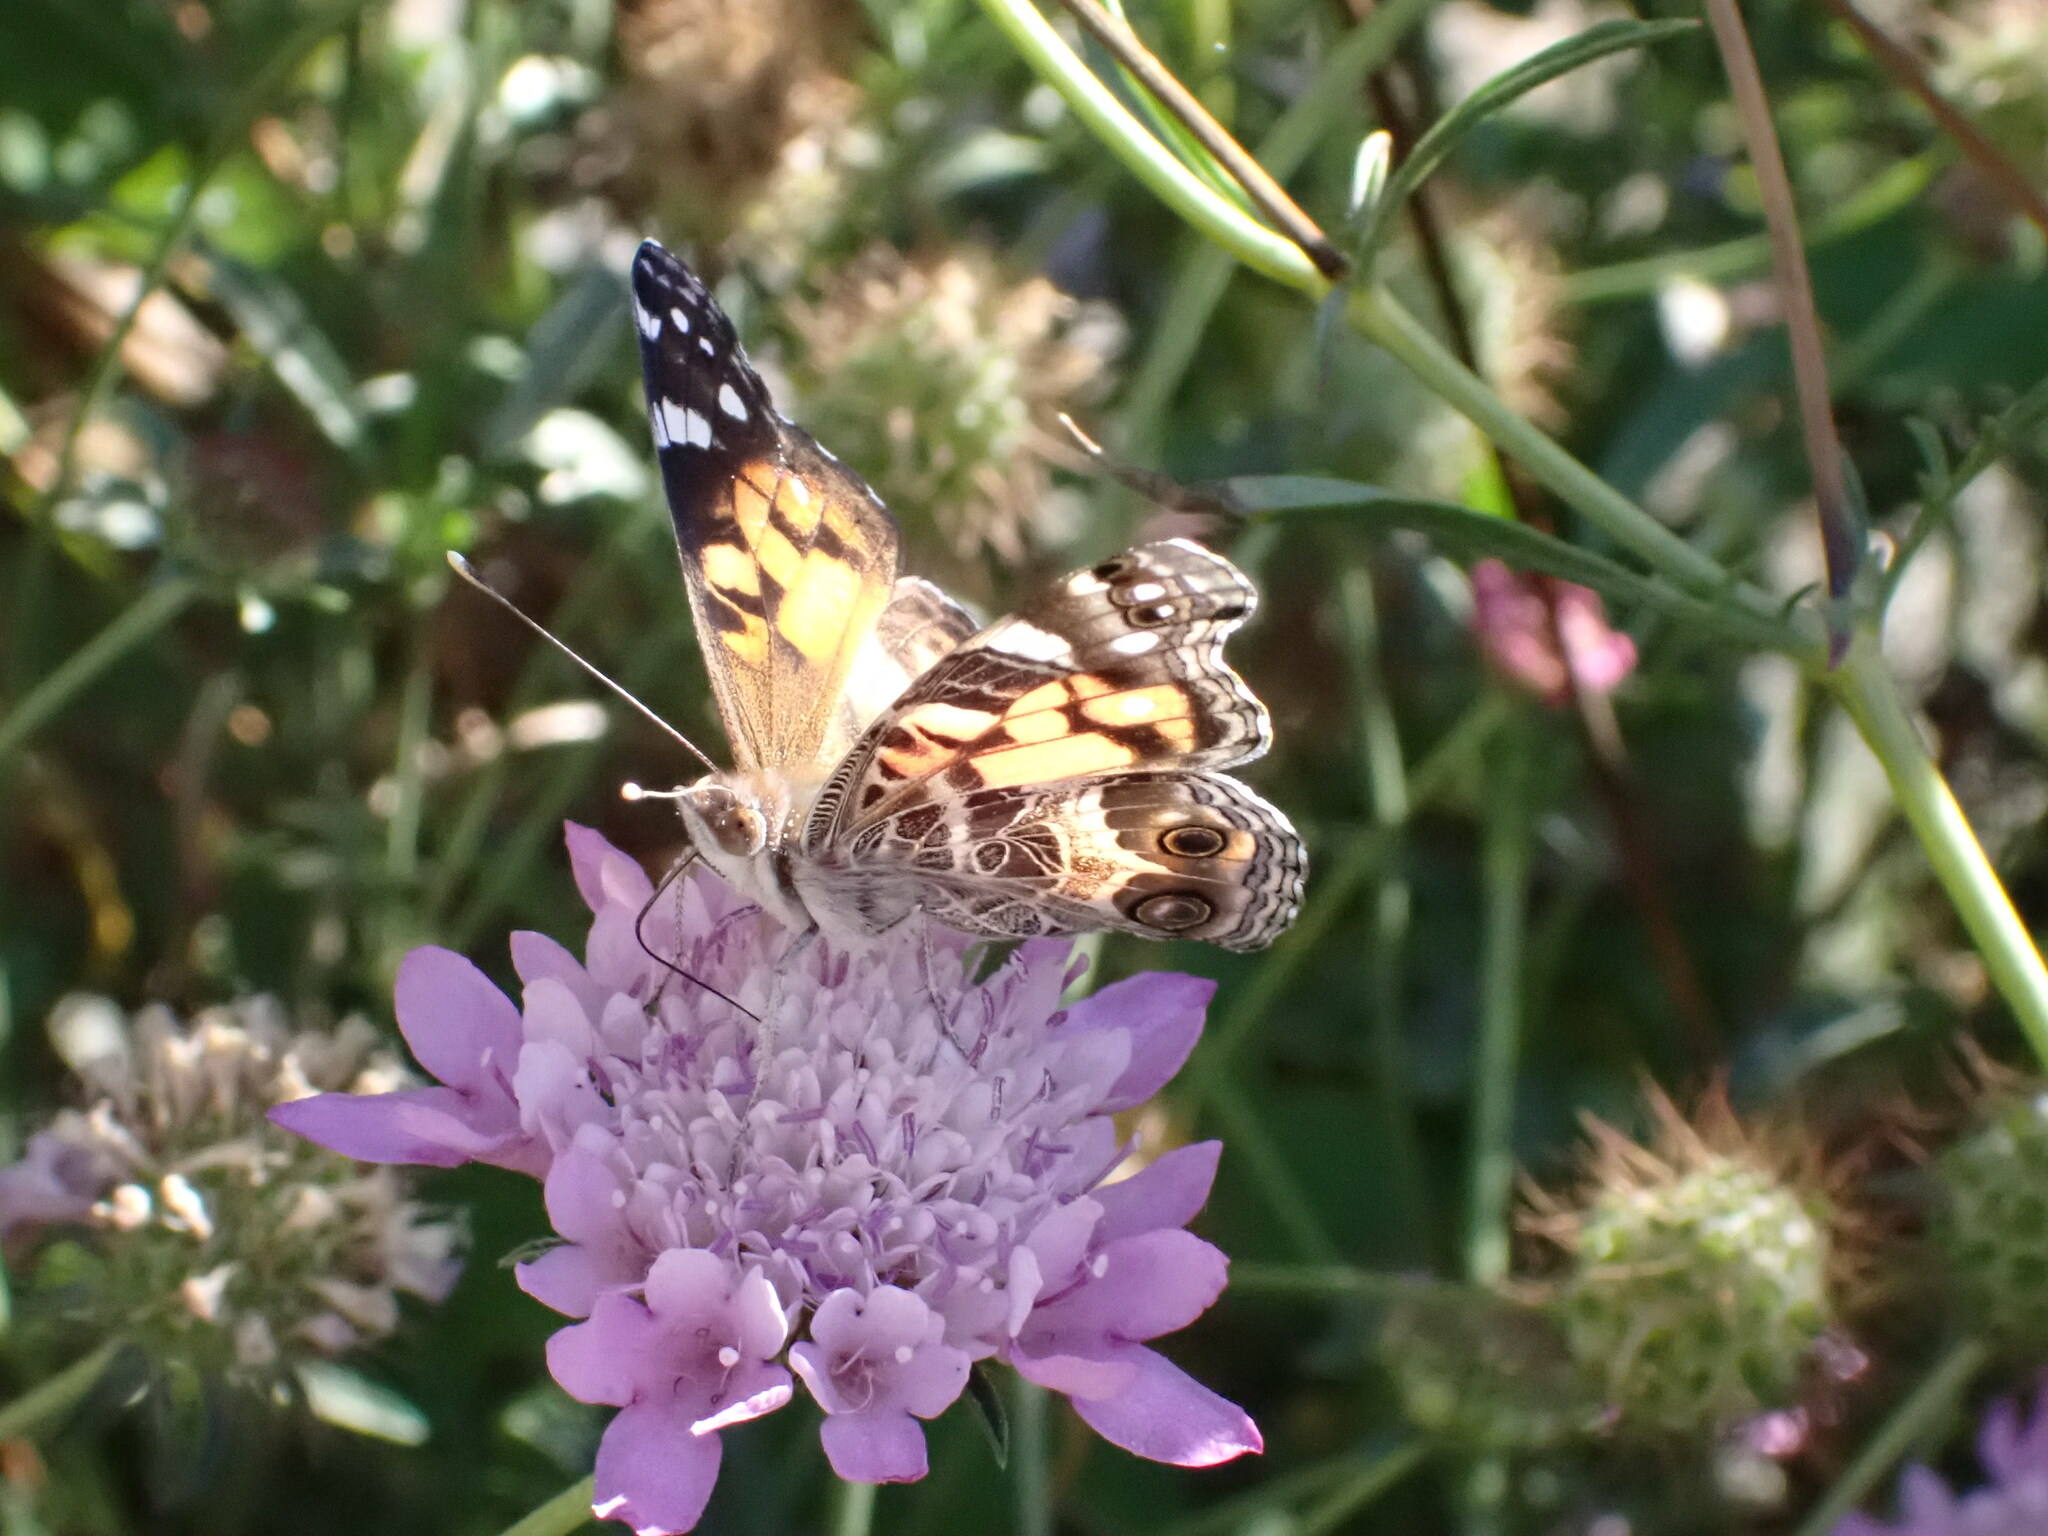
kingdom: Animalia
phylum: Arthropoda
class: Insecta
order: Lepidoptera
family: Nymphalidae
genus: Vanessa
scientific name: Vanessa virginiensis
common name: American lady
